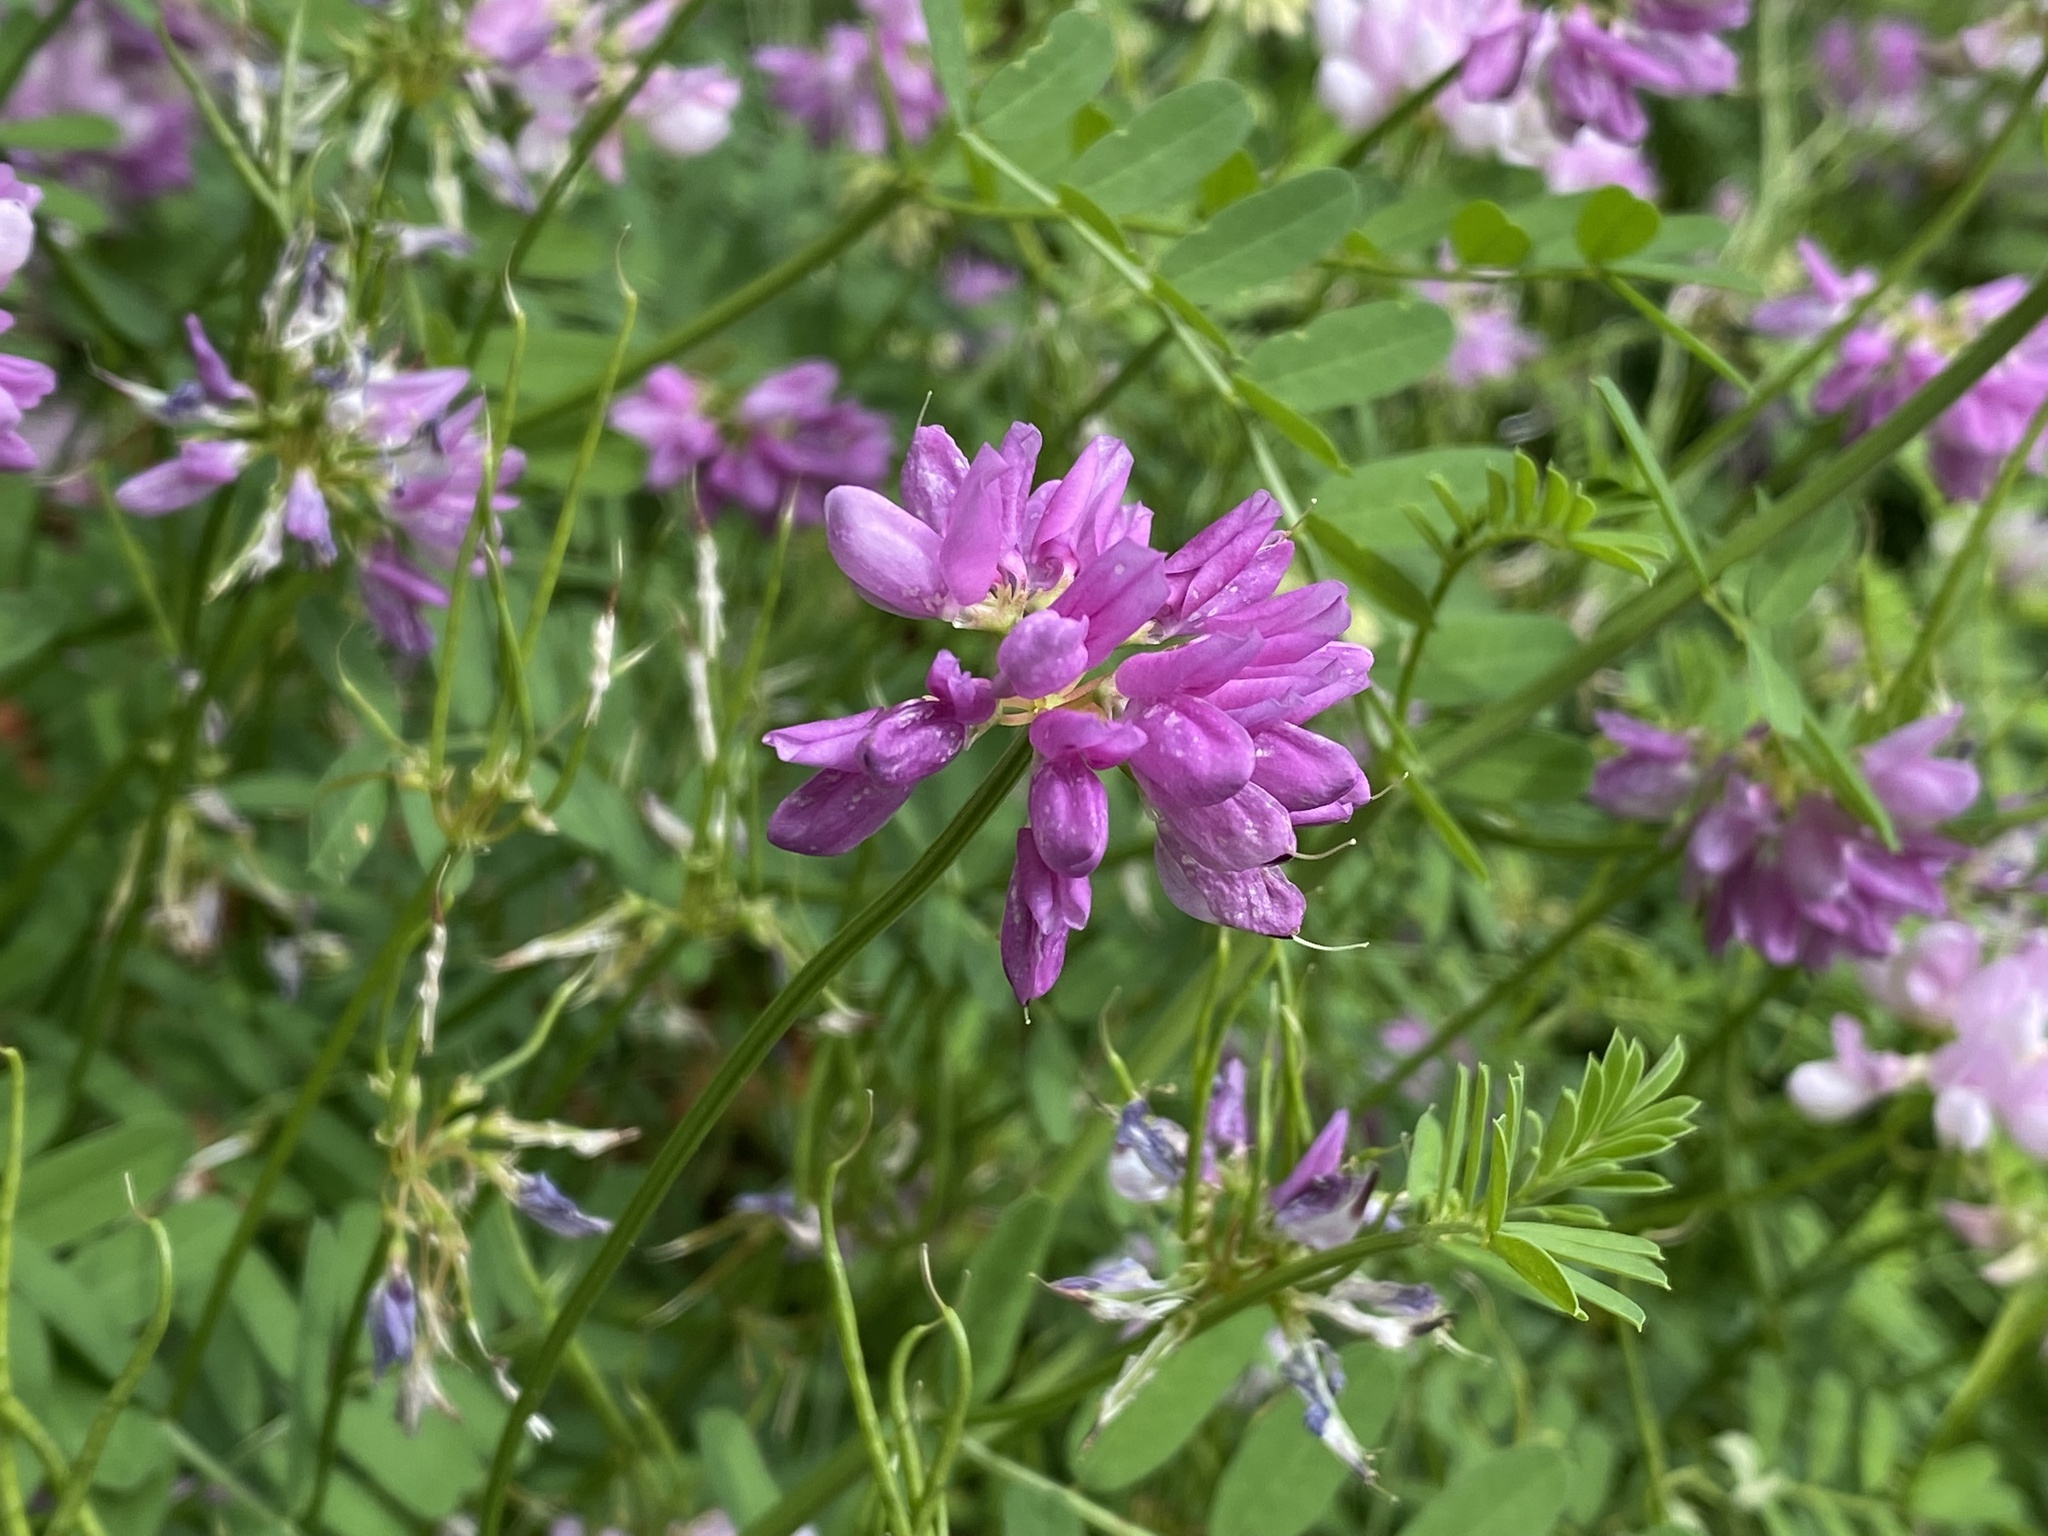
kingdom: Plantae
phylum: Tracheophyta
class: Magnoliopsida
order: Fabales
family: Fabaceae
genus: Coronilla
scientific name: Coronilla varia
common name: Crownvetch
